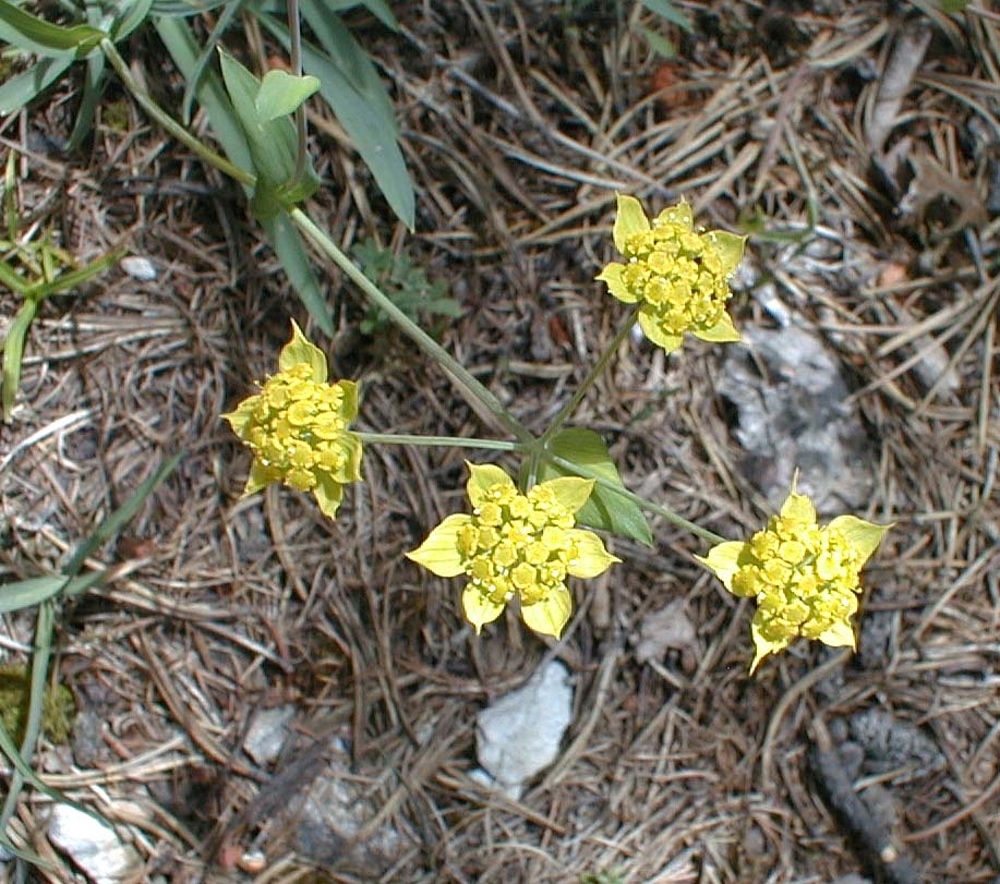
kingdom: Plantae
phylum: Tracheophyta
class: Magnoliopsida
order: Apiales
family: Apiaceae
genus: Bupleurum
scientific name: Bupleurum ranunculoides
